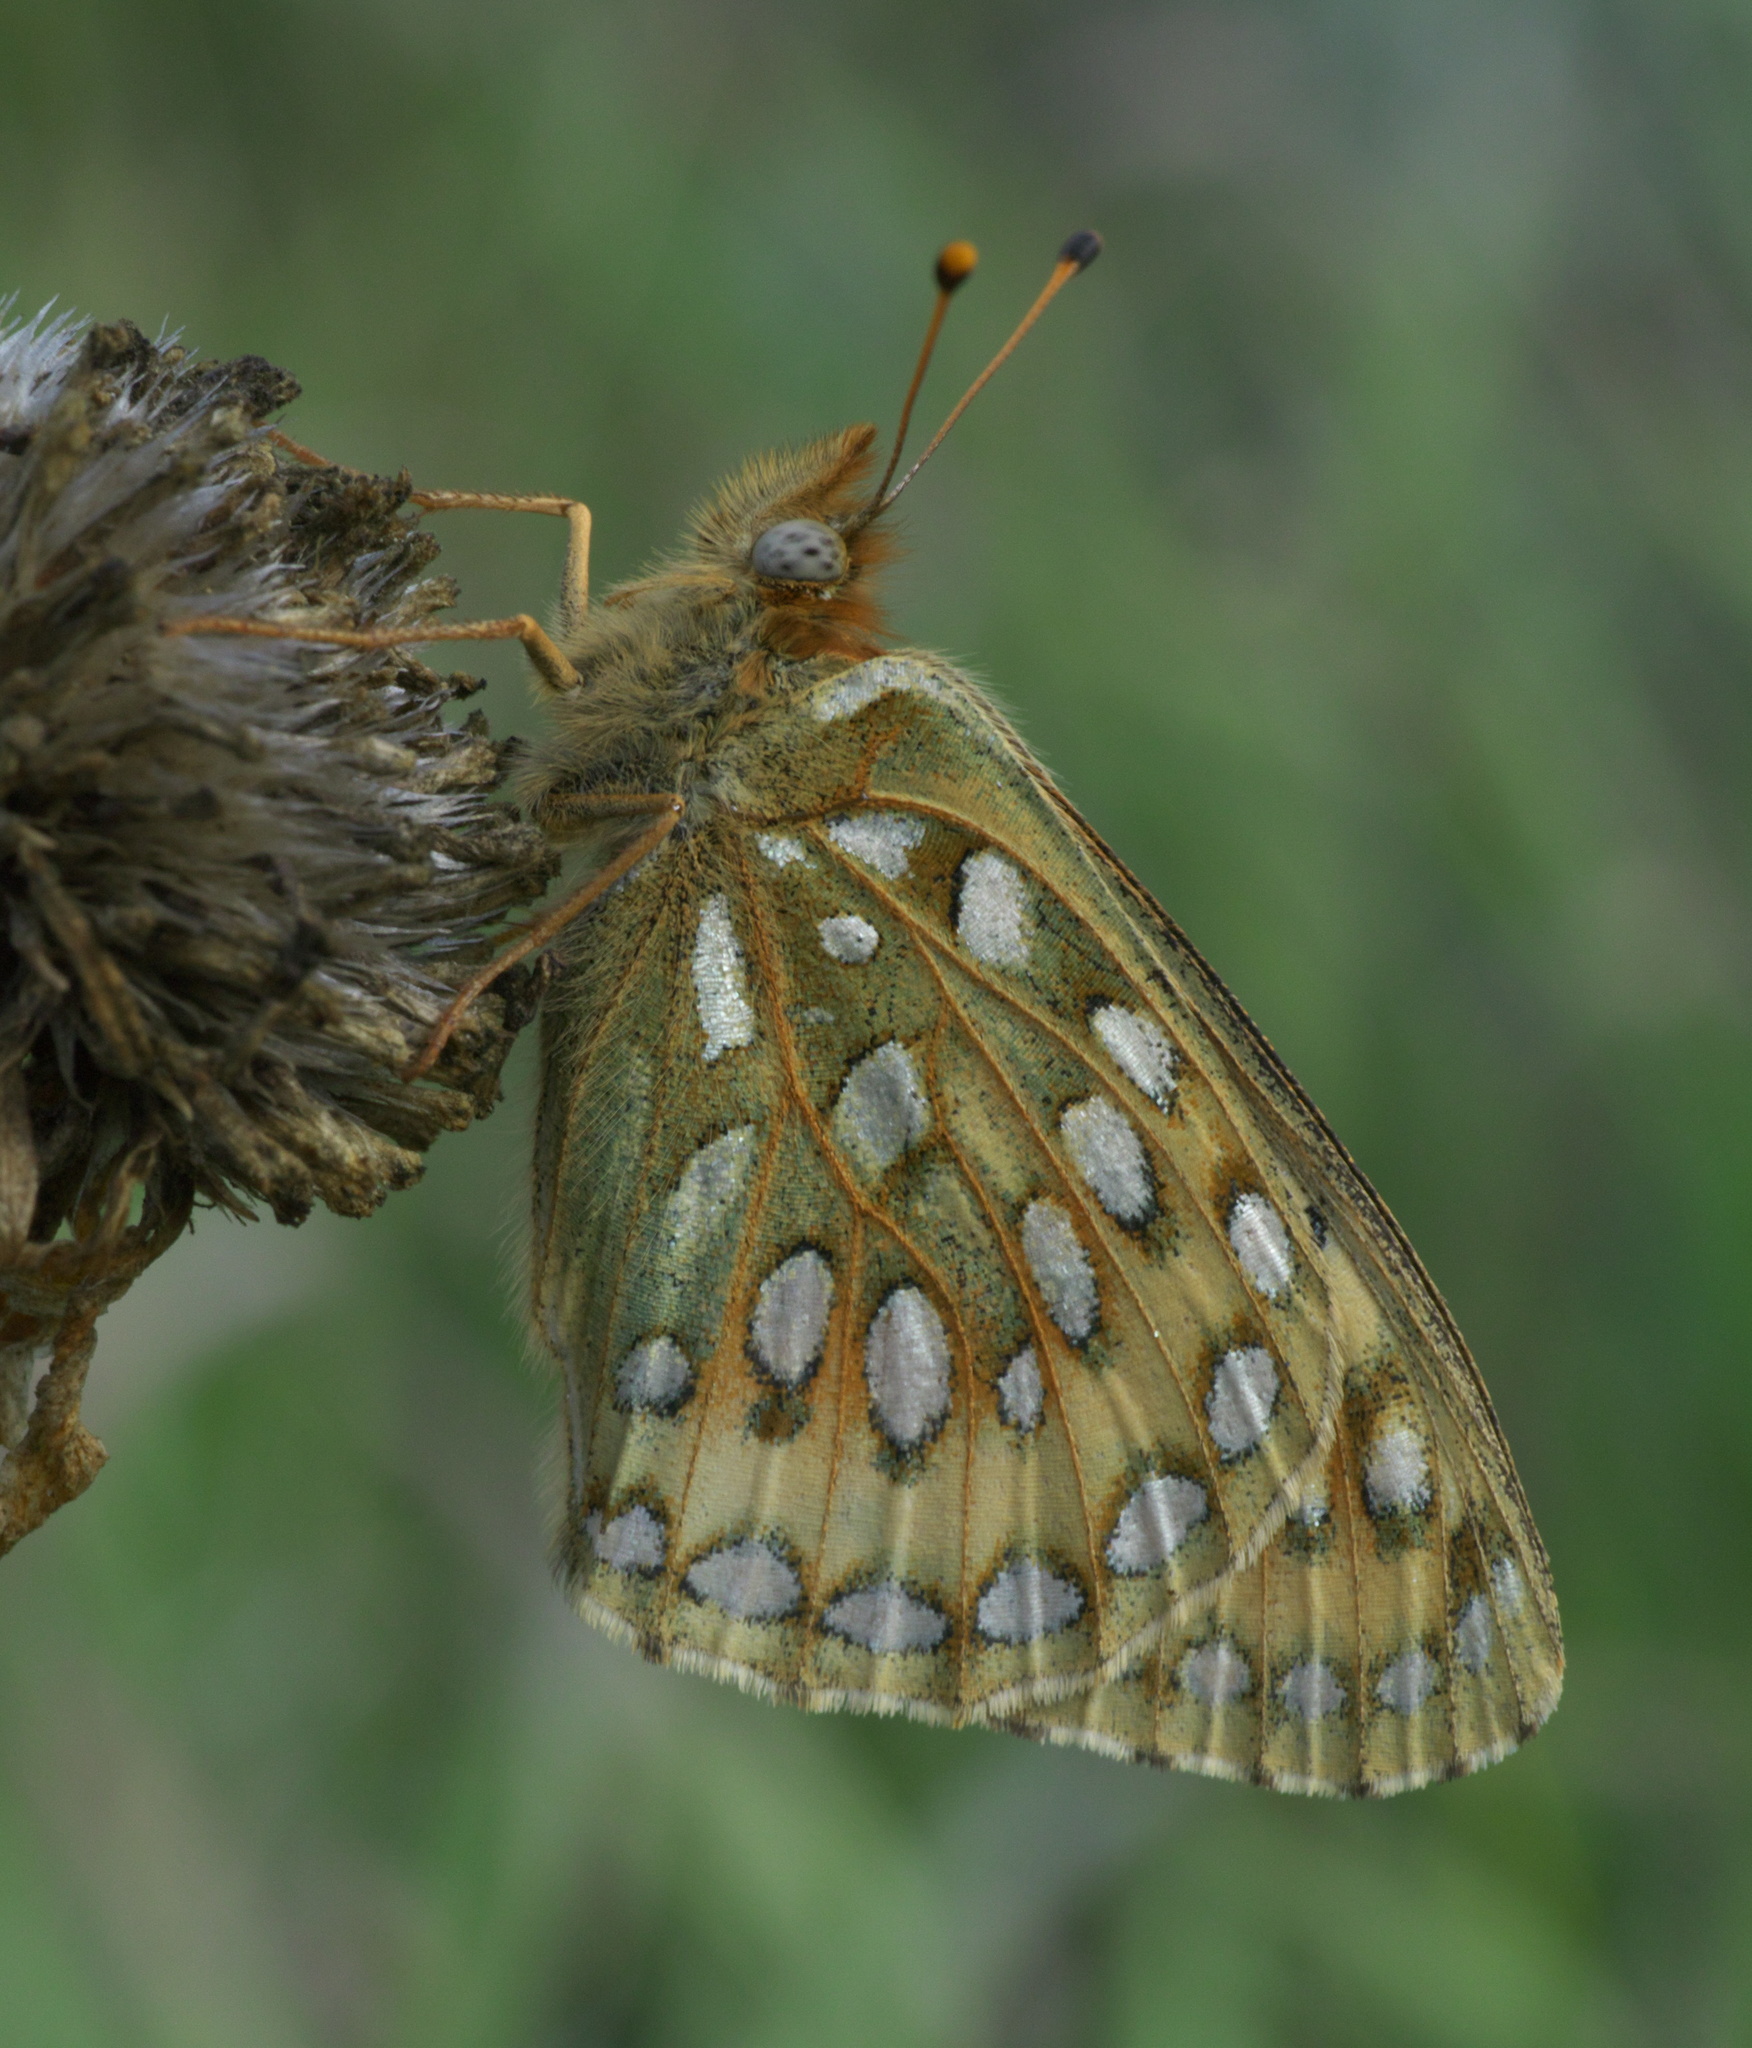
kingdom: Animalia
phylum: Arthropoda
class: Insecta
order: Lepidoptera
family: Nymphalidae
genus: Speyeria
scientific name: Speyeria mormonia
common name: Mormon fritillary
